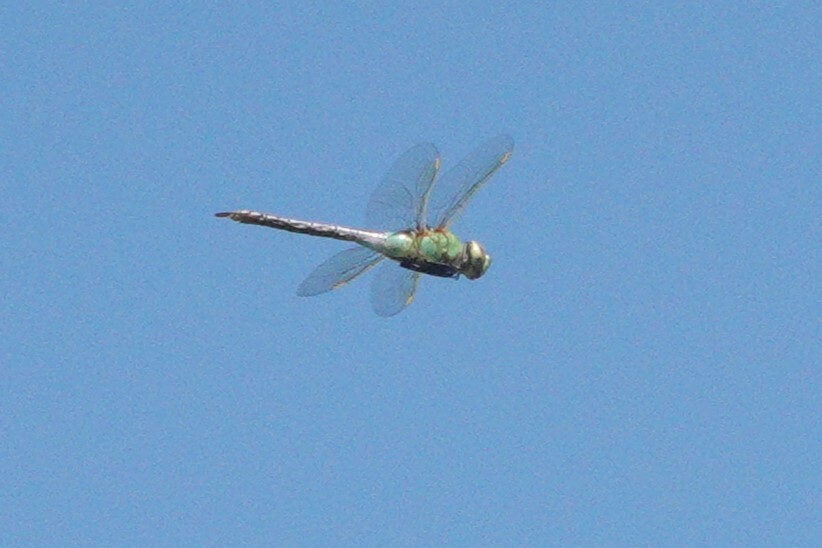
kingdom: Animalia
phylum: Arthropoda
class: Insecta
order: Odonata
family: Aeshnidae
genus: Anax
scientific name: Anax junius
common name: Common green darner
